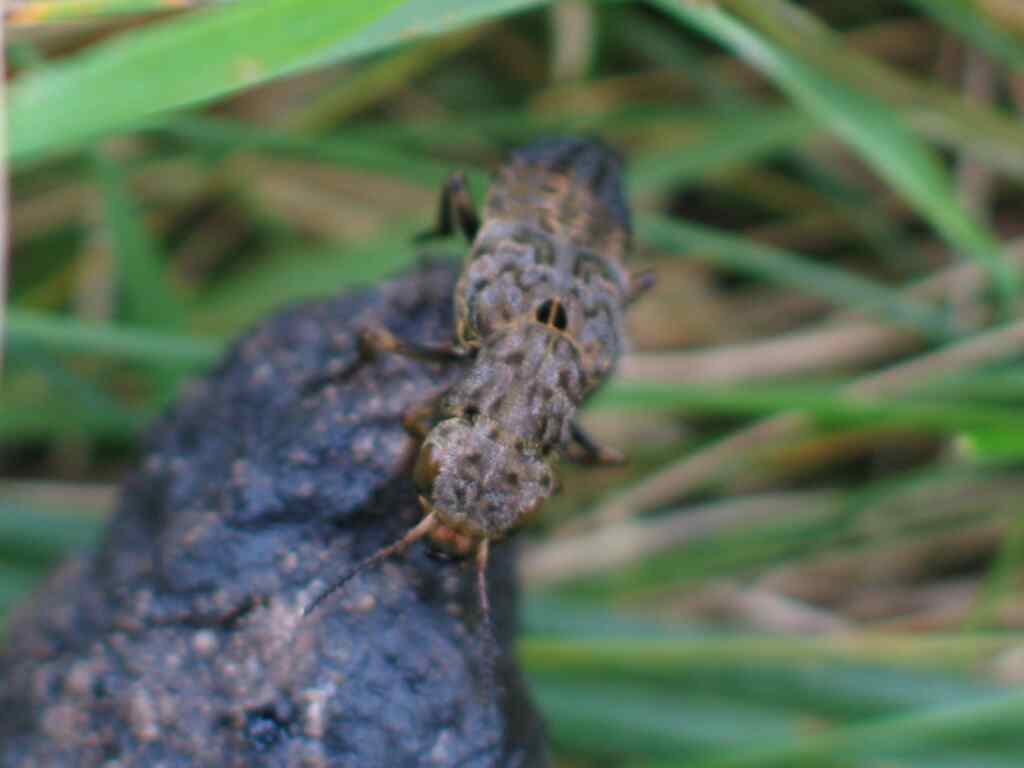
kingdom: Animalia
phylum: Arthropoda
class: Insecta
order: Coleoptera
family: Staphylinidae
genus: Ontholestes
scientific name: Ontholestes tessellatus
